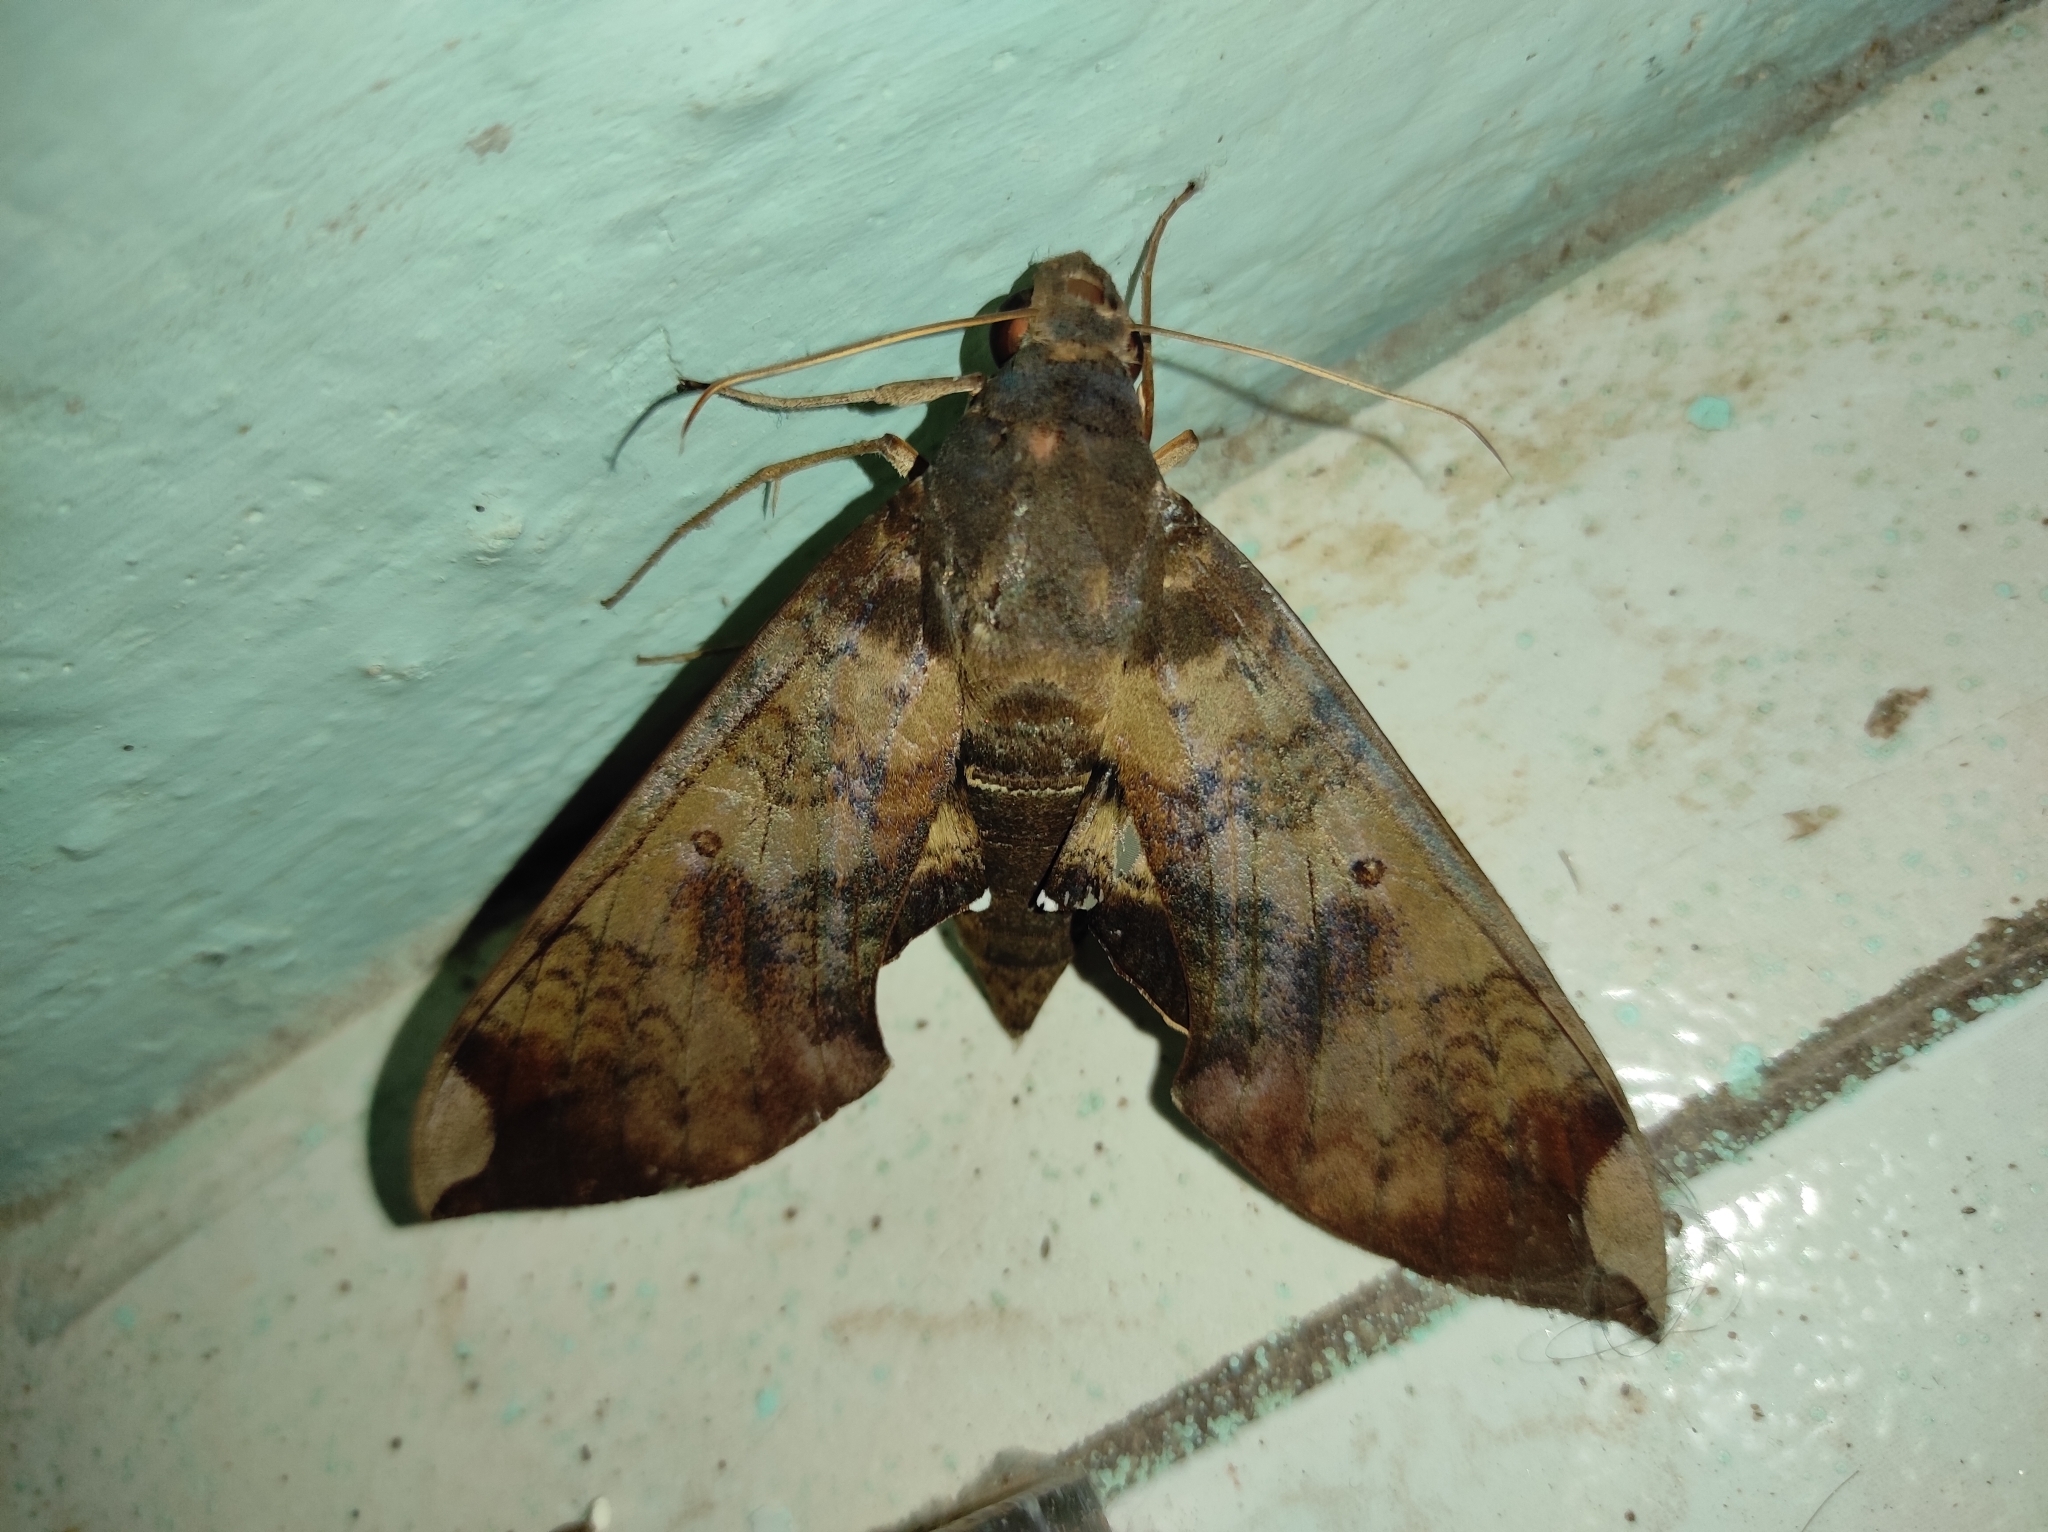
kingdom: Animalia
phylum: Arthropoda
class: Insecta
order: Lepidoptera
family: Sphingidae
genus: Pachylia
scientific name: Pachylia ficus
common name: Fig sphinx
